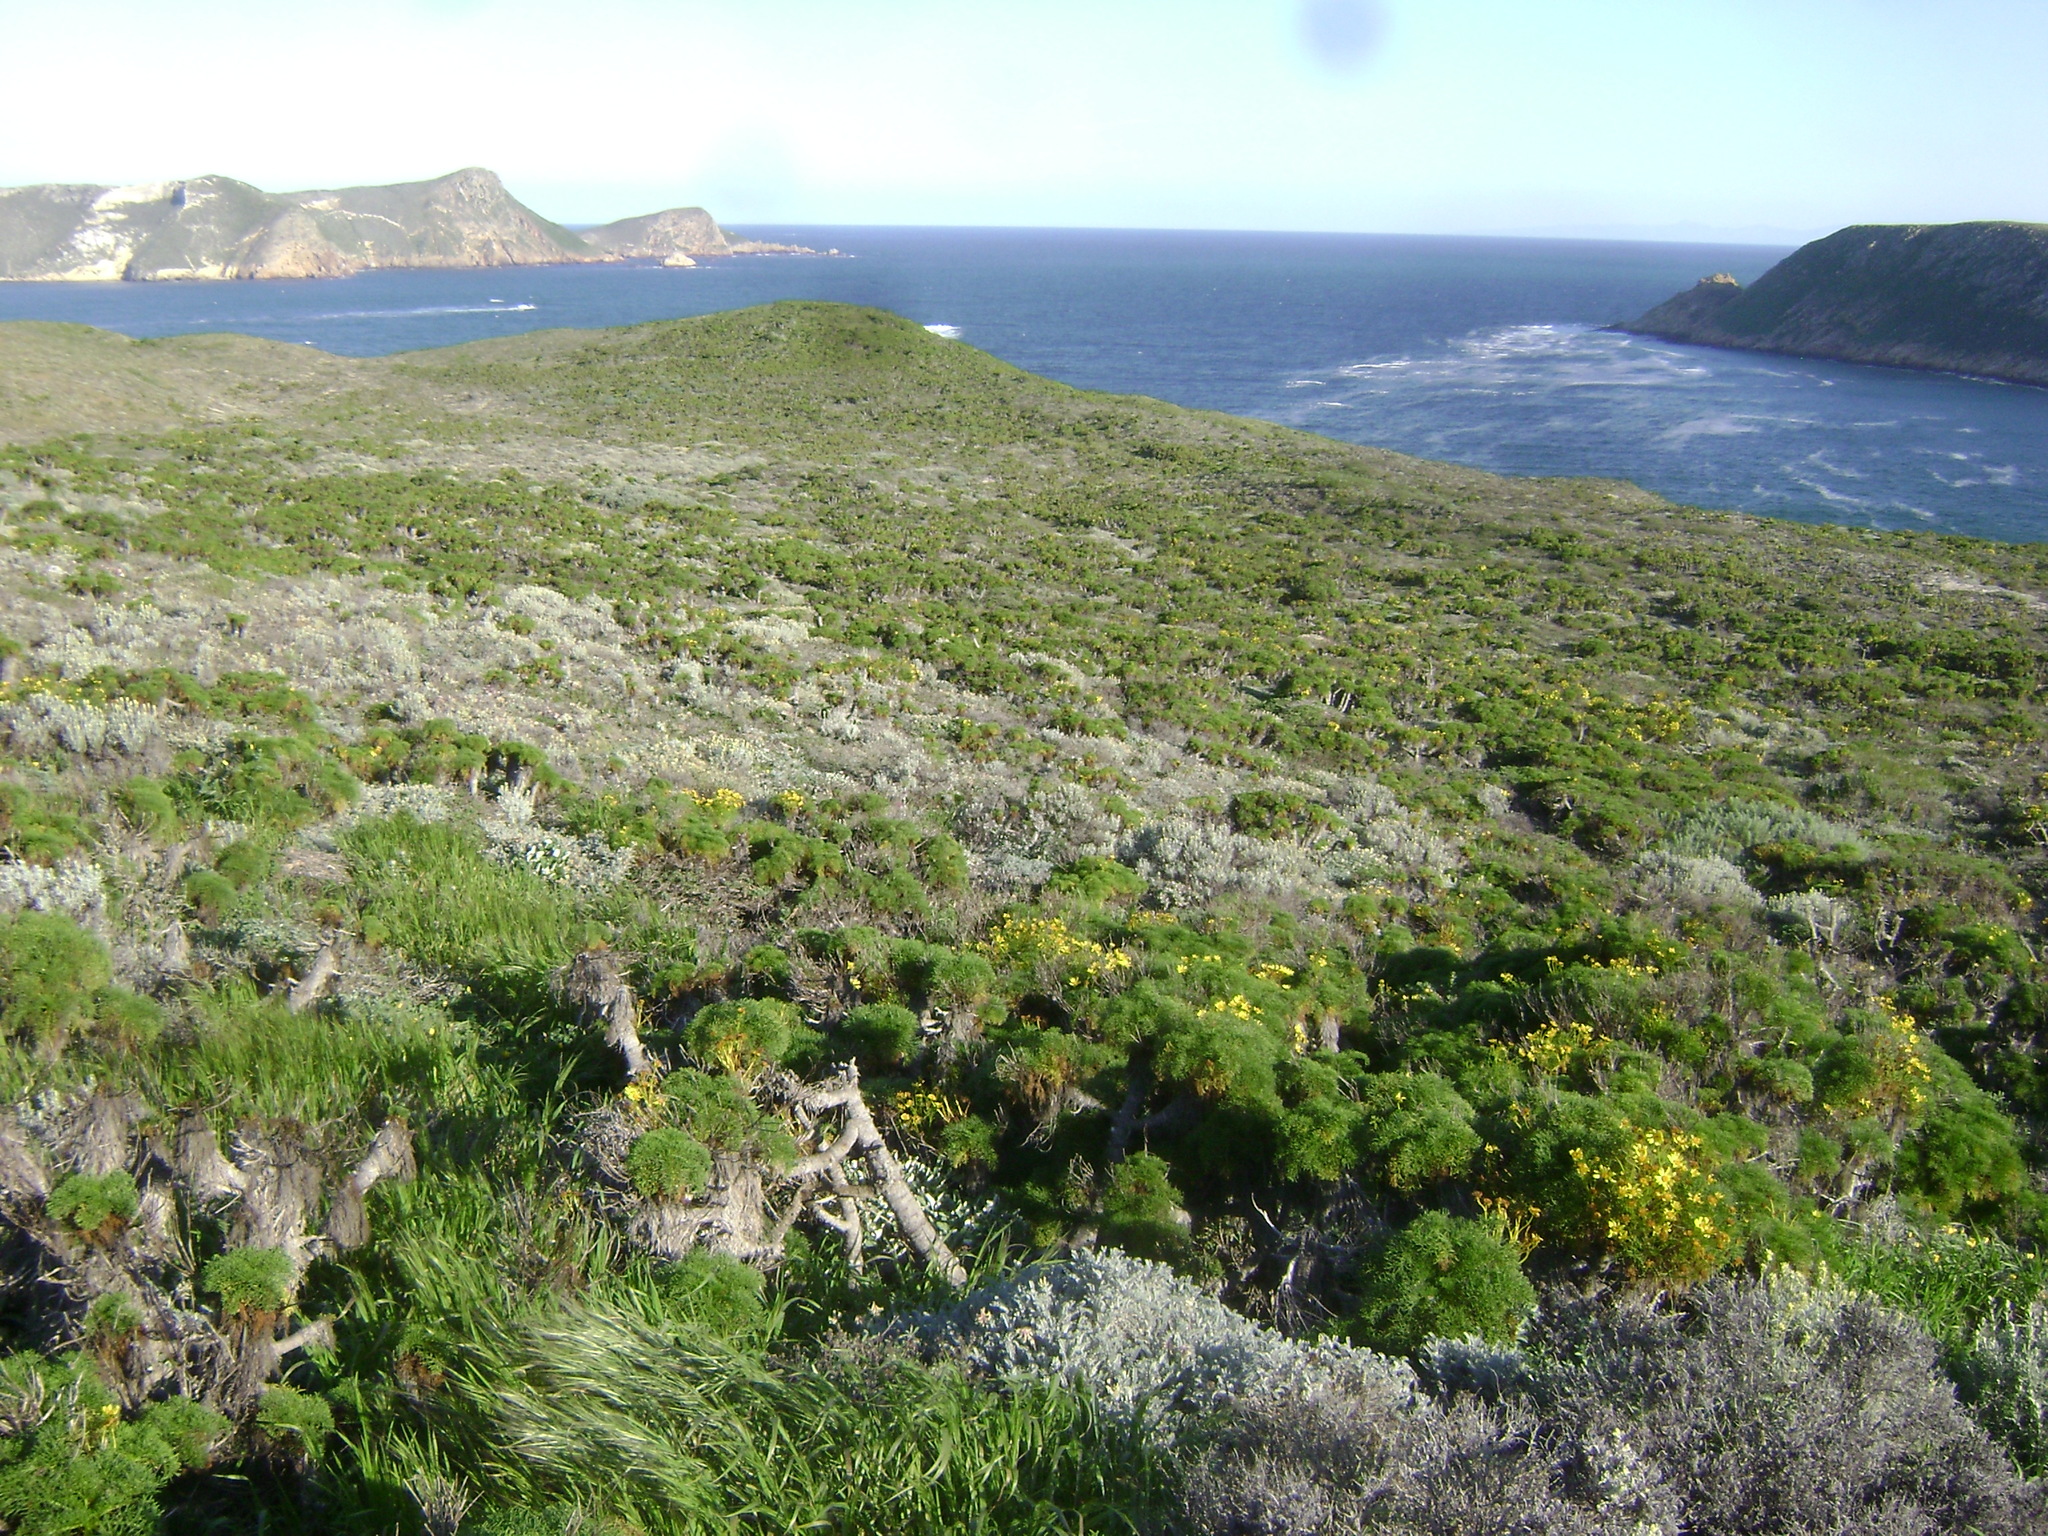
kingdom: Plantae
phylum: Tracheophyta
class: Magnoliopsida
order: Asterales
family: Asteraceae
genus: Coreopsis
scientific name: Coreopsis gigantea
